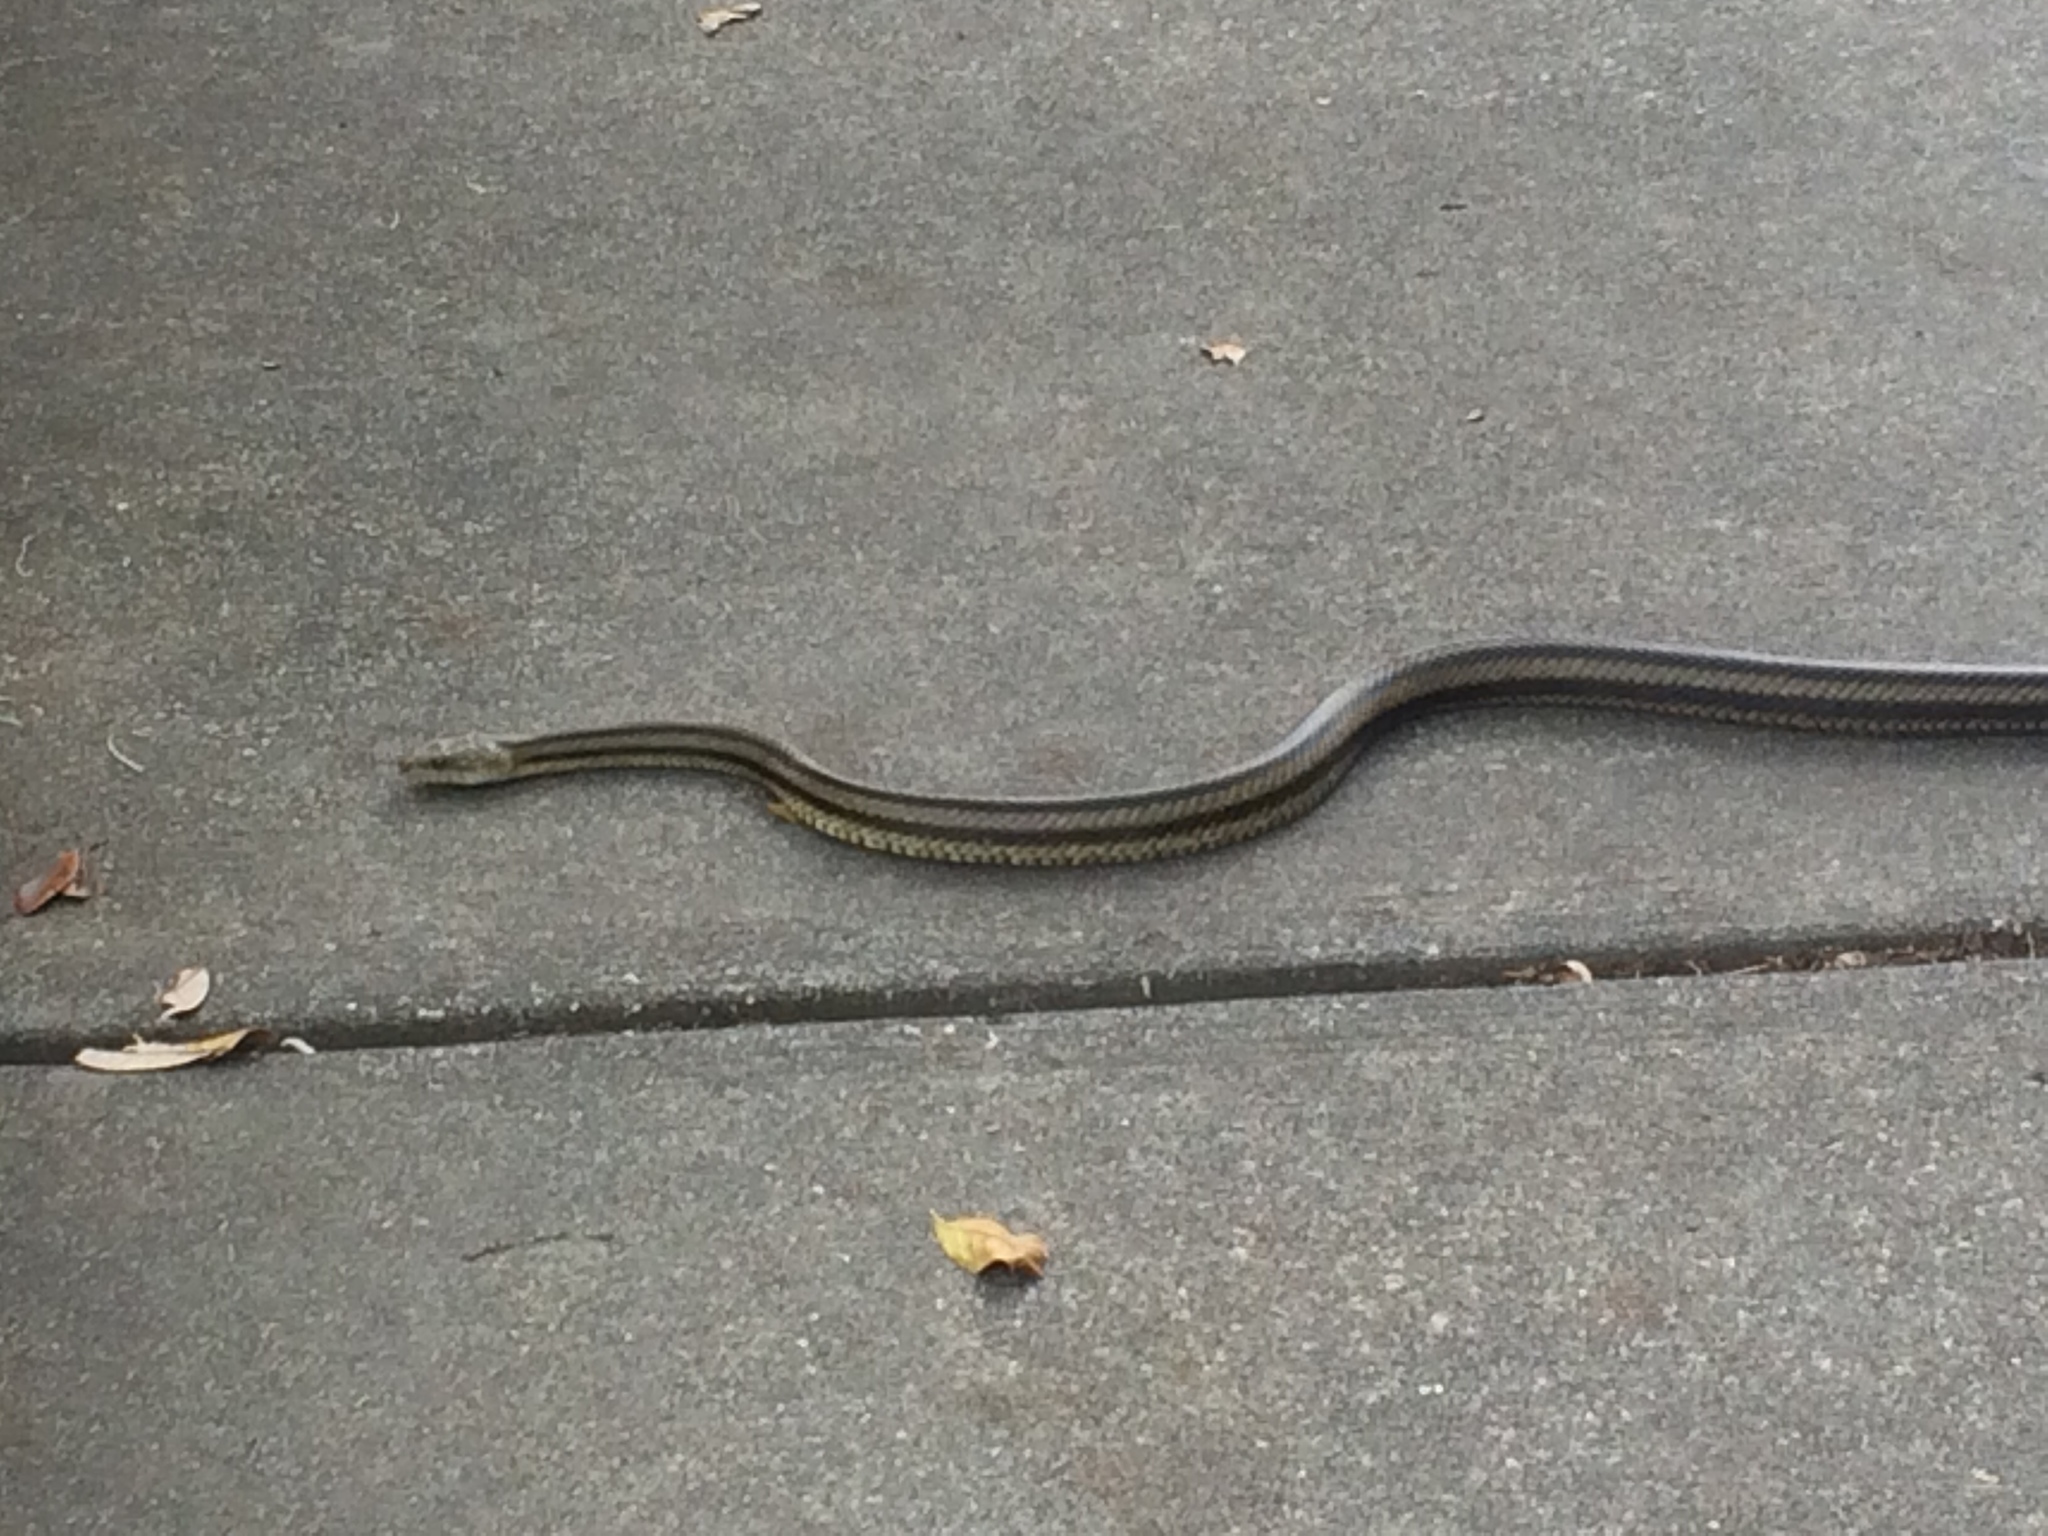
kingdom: Animalia
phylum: Chordata
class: Squamata
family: Colubridae
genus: Pantherophis
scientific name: Pantherophis alleghaniensis
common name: Eastern rat snake
